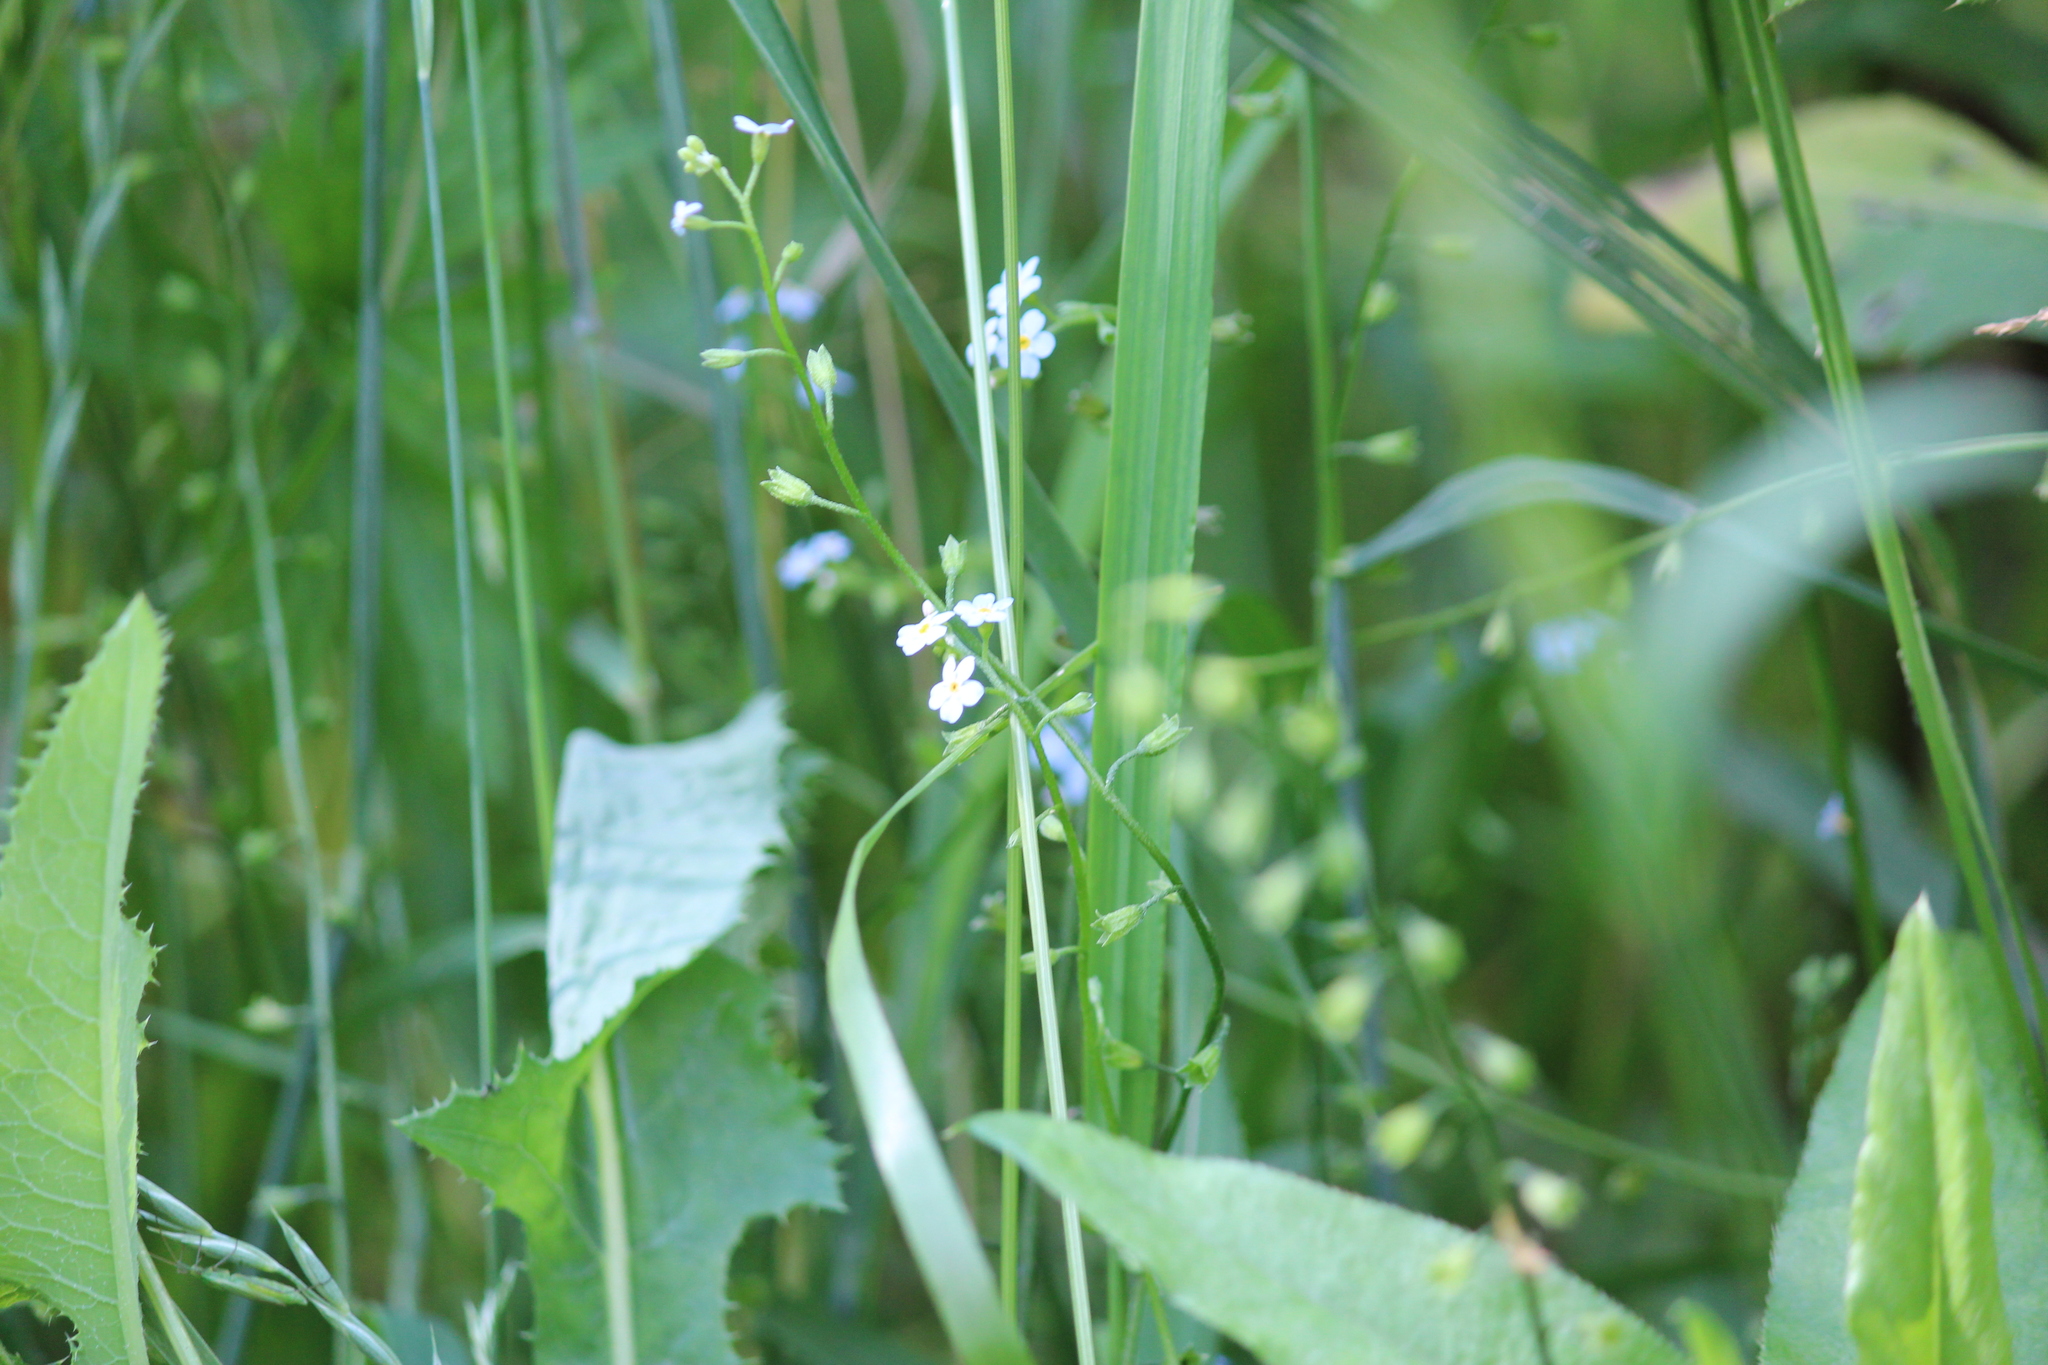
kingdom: Plantae
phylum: Tracheophyta
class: Magnoliopsida
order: Boraginales
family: Boraginaceae
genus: Myosotis
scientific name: Myosotis scorpioides
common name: Water forget-me-not
